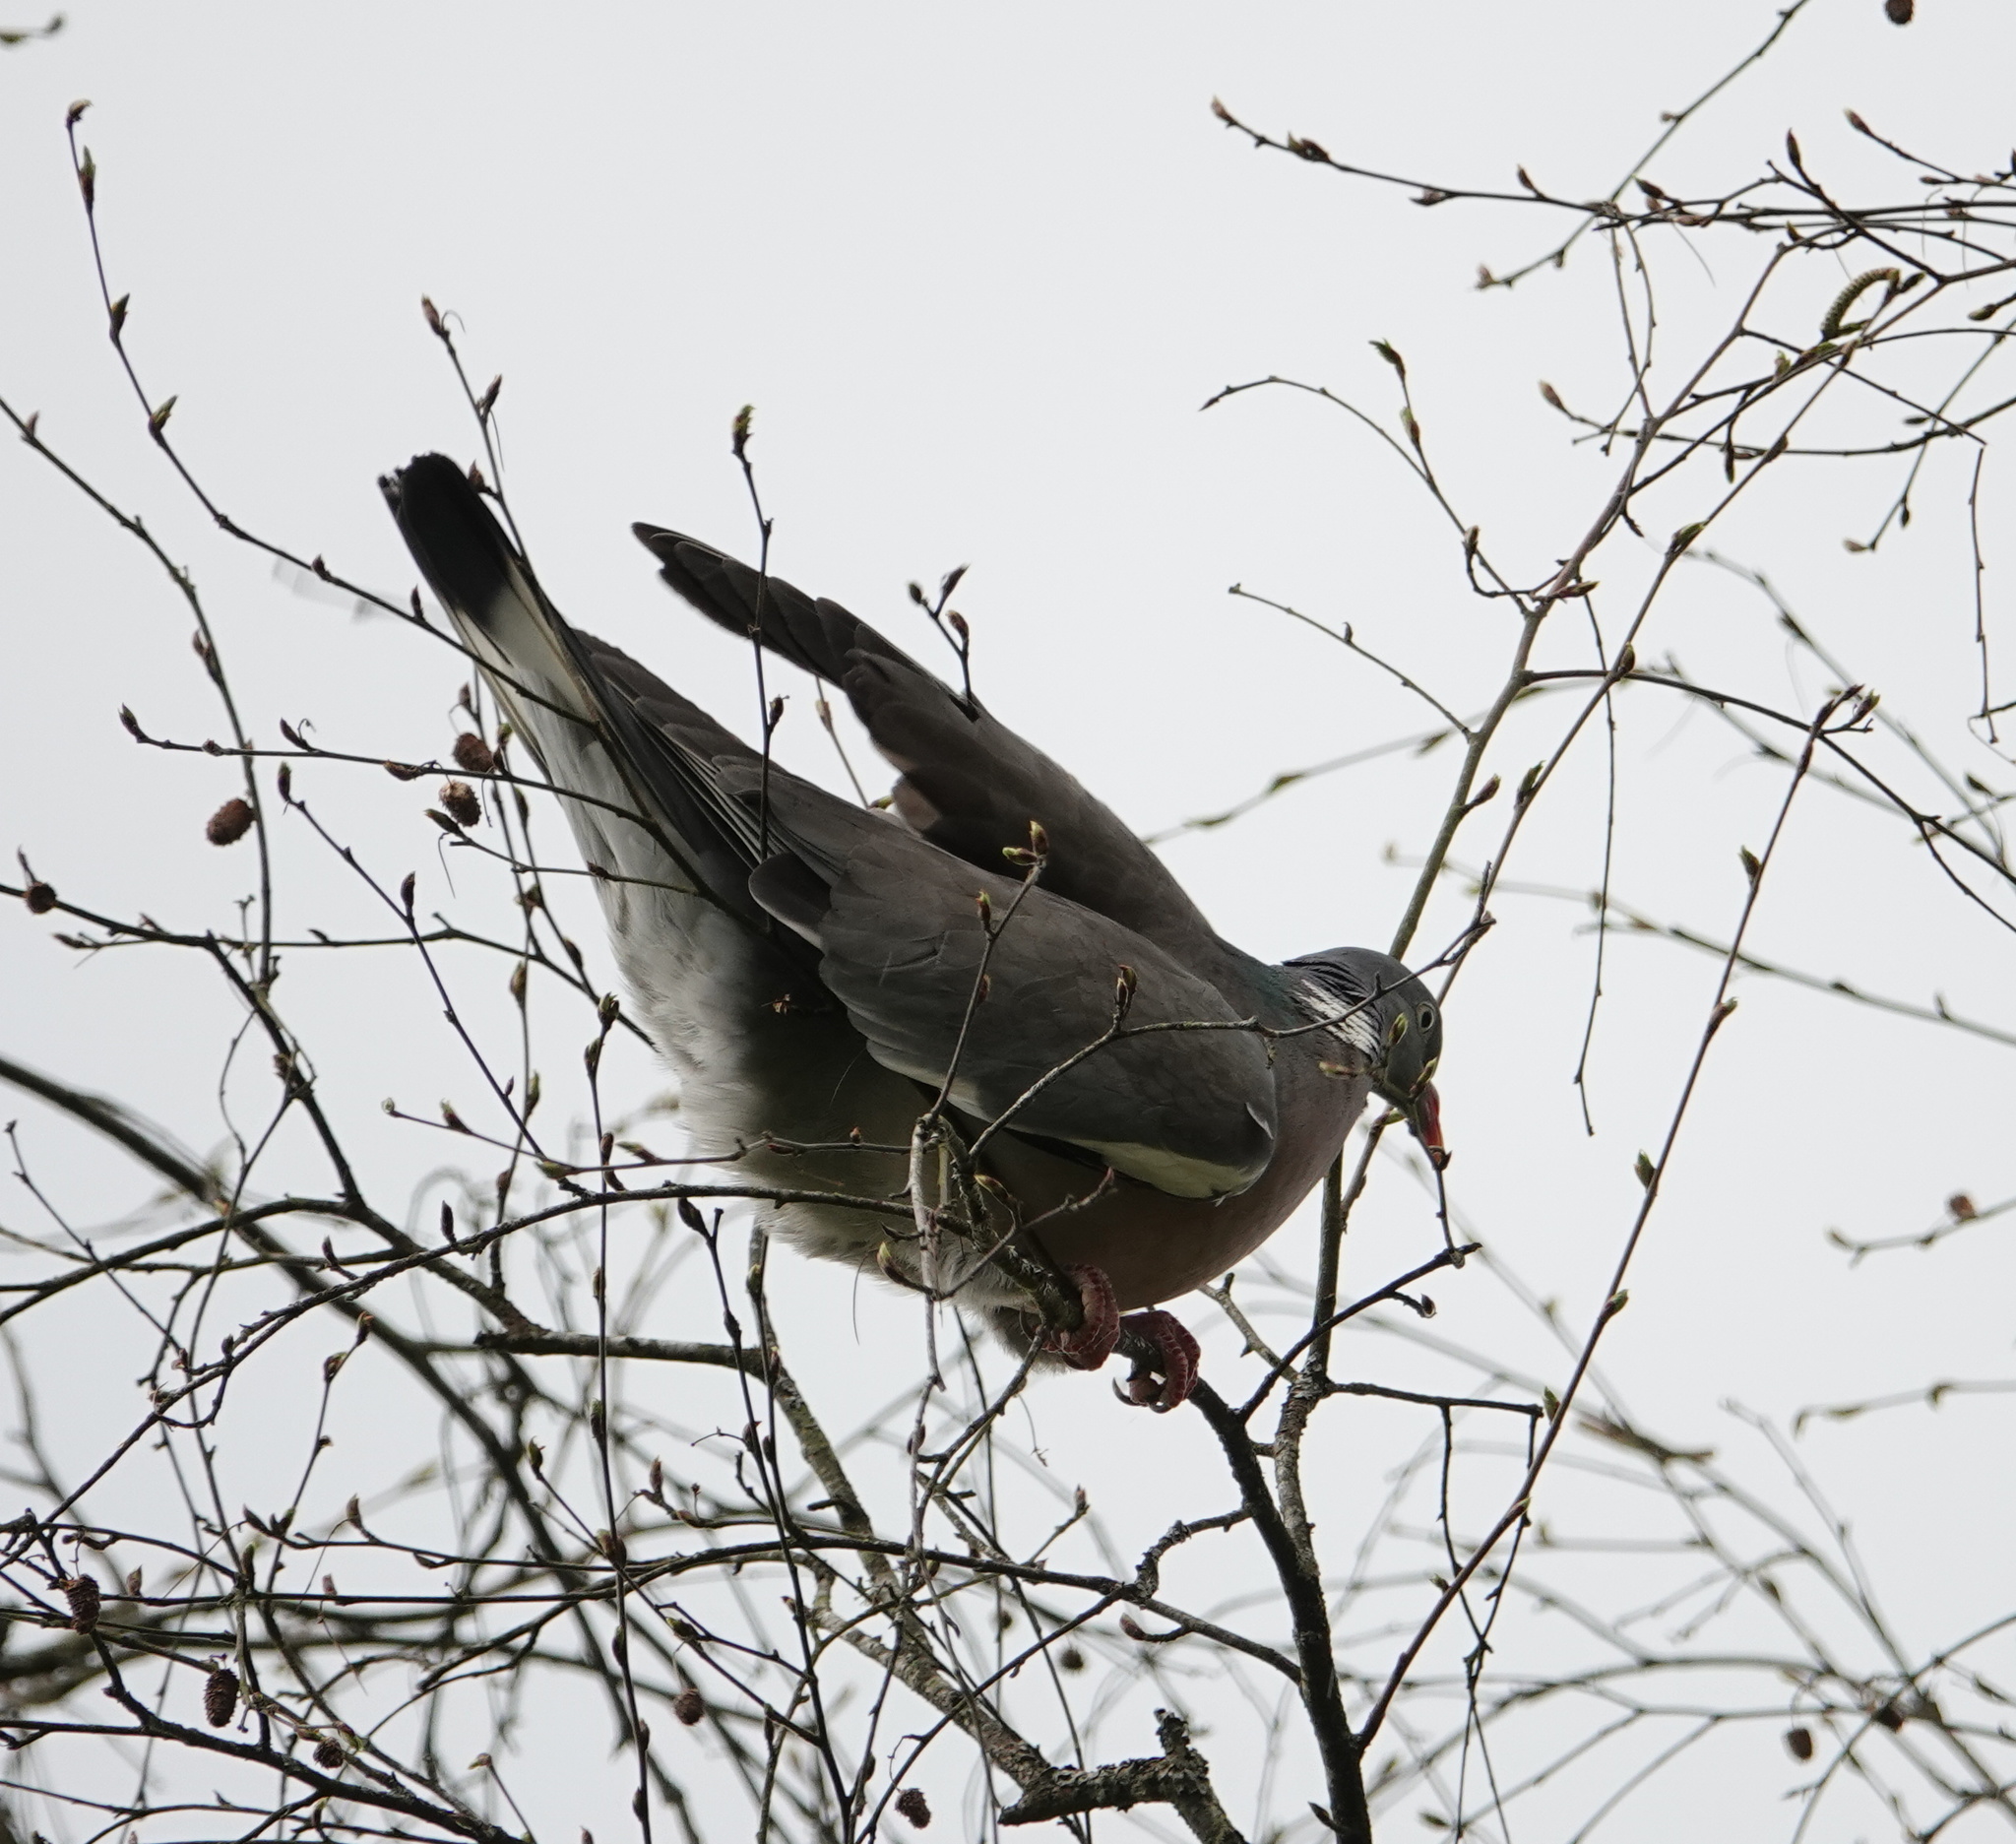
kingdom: Animalia
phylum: Chordata
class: Aves
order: Columbiformes
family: Columbidae
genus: Columba
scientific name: Columba palumbus
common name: Common wood pigeon
